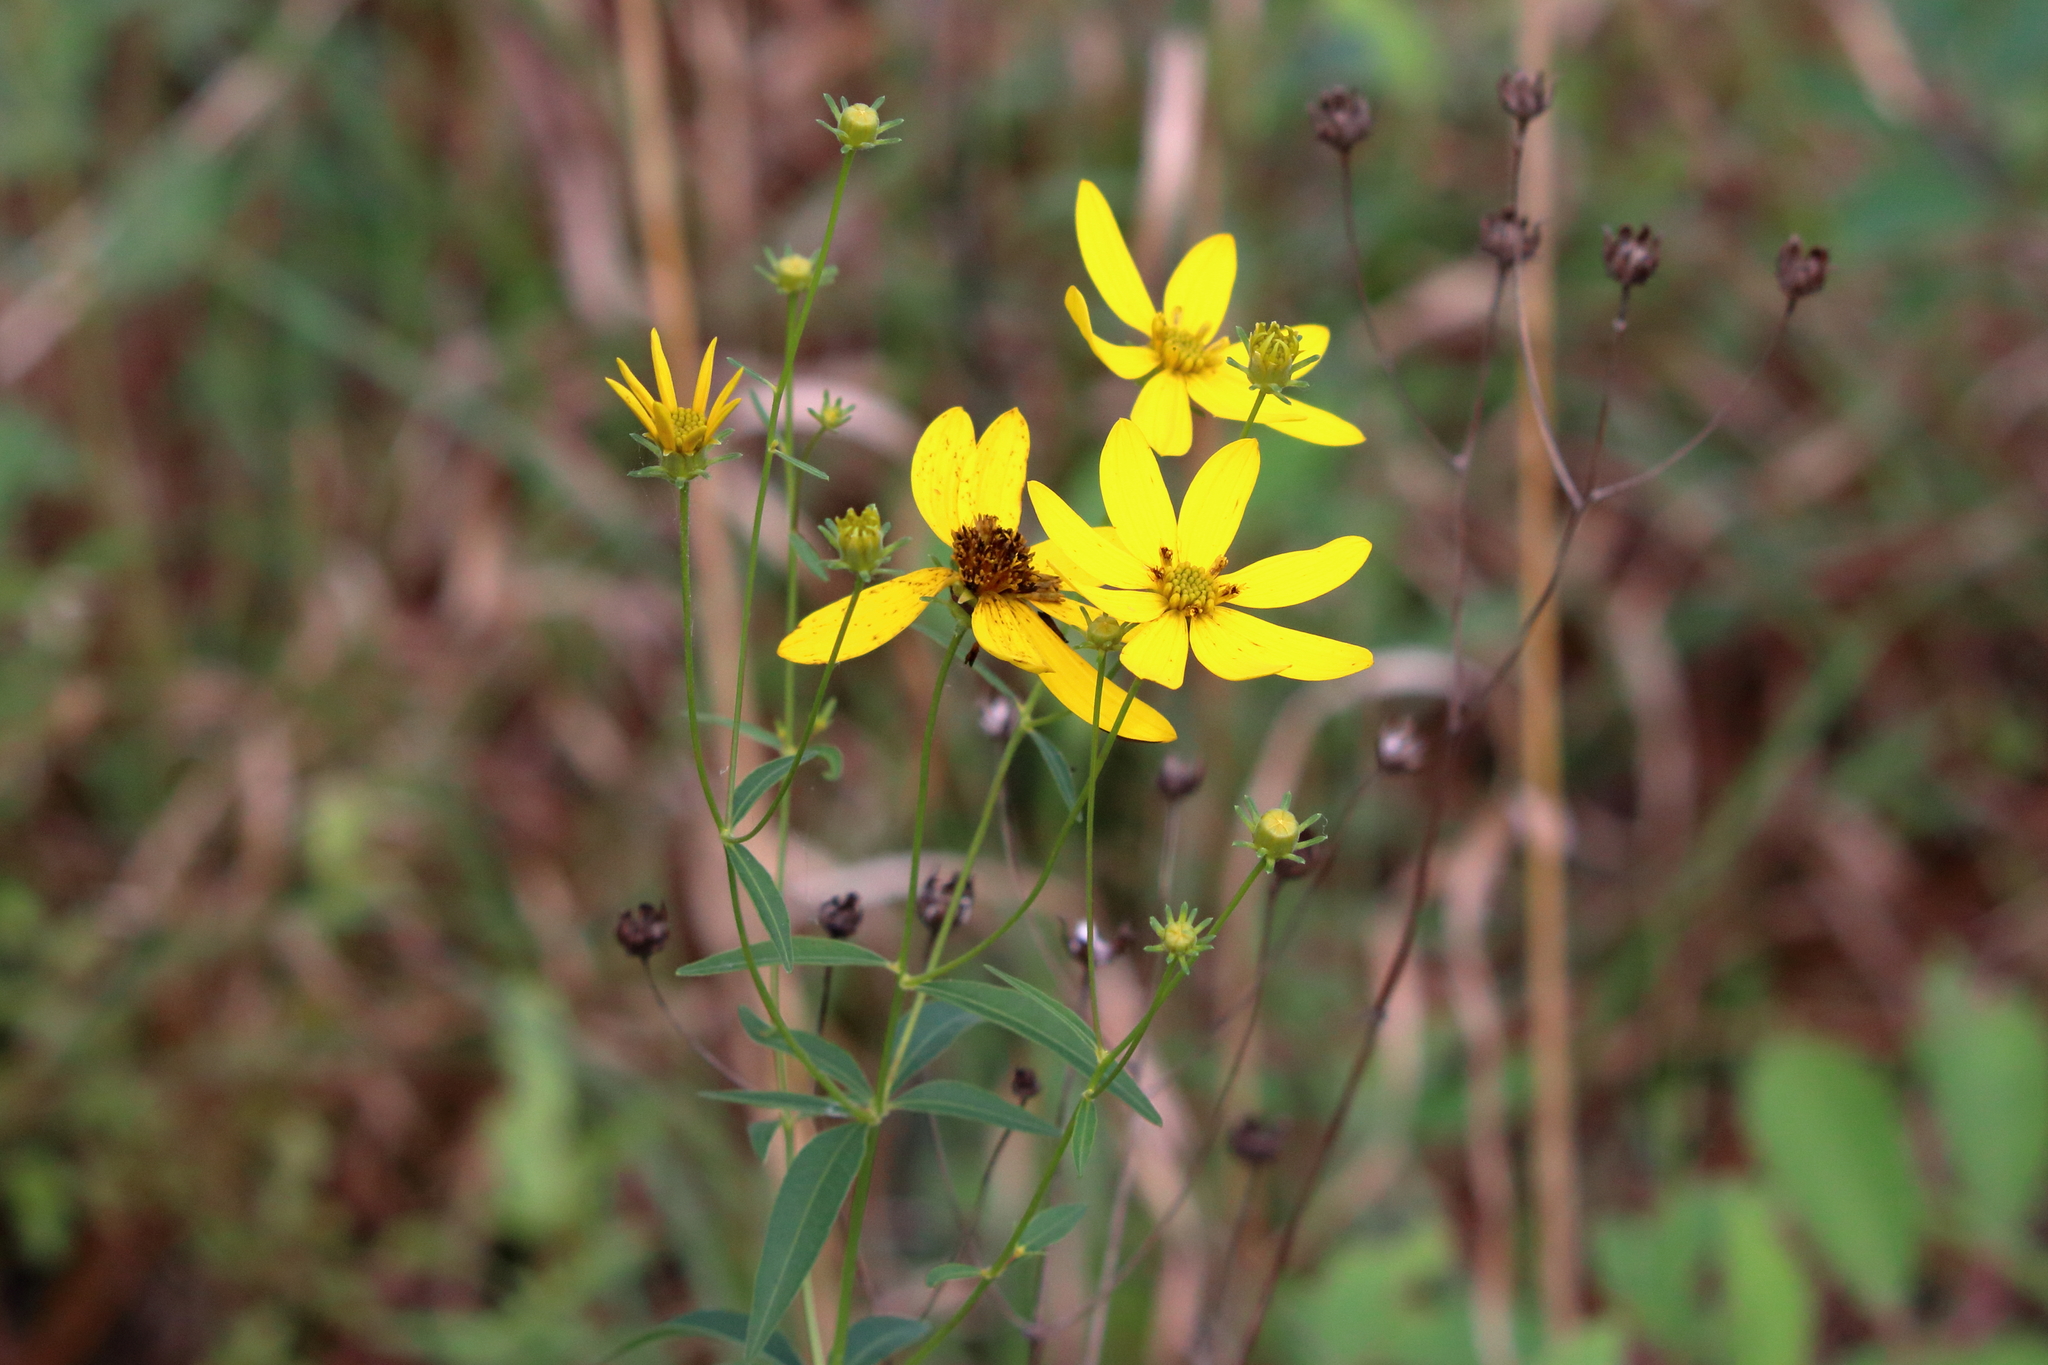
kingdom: Plantae
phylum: Tracheophyta
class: Magnoliopsida
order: Asterales
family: Asteraceae
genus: Coreopsis
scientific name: Coreopsis major
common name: Forest tickseed
